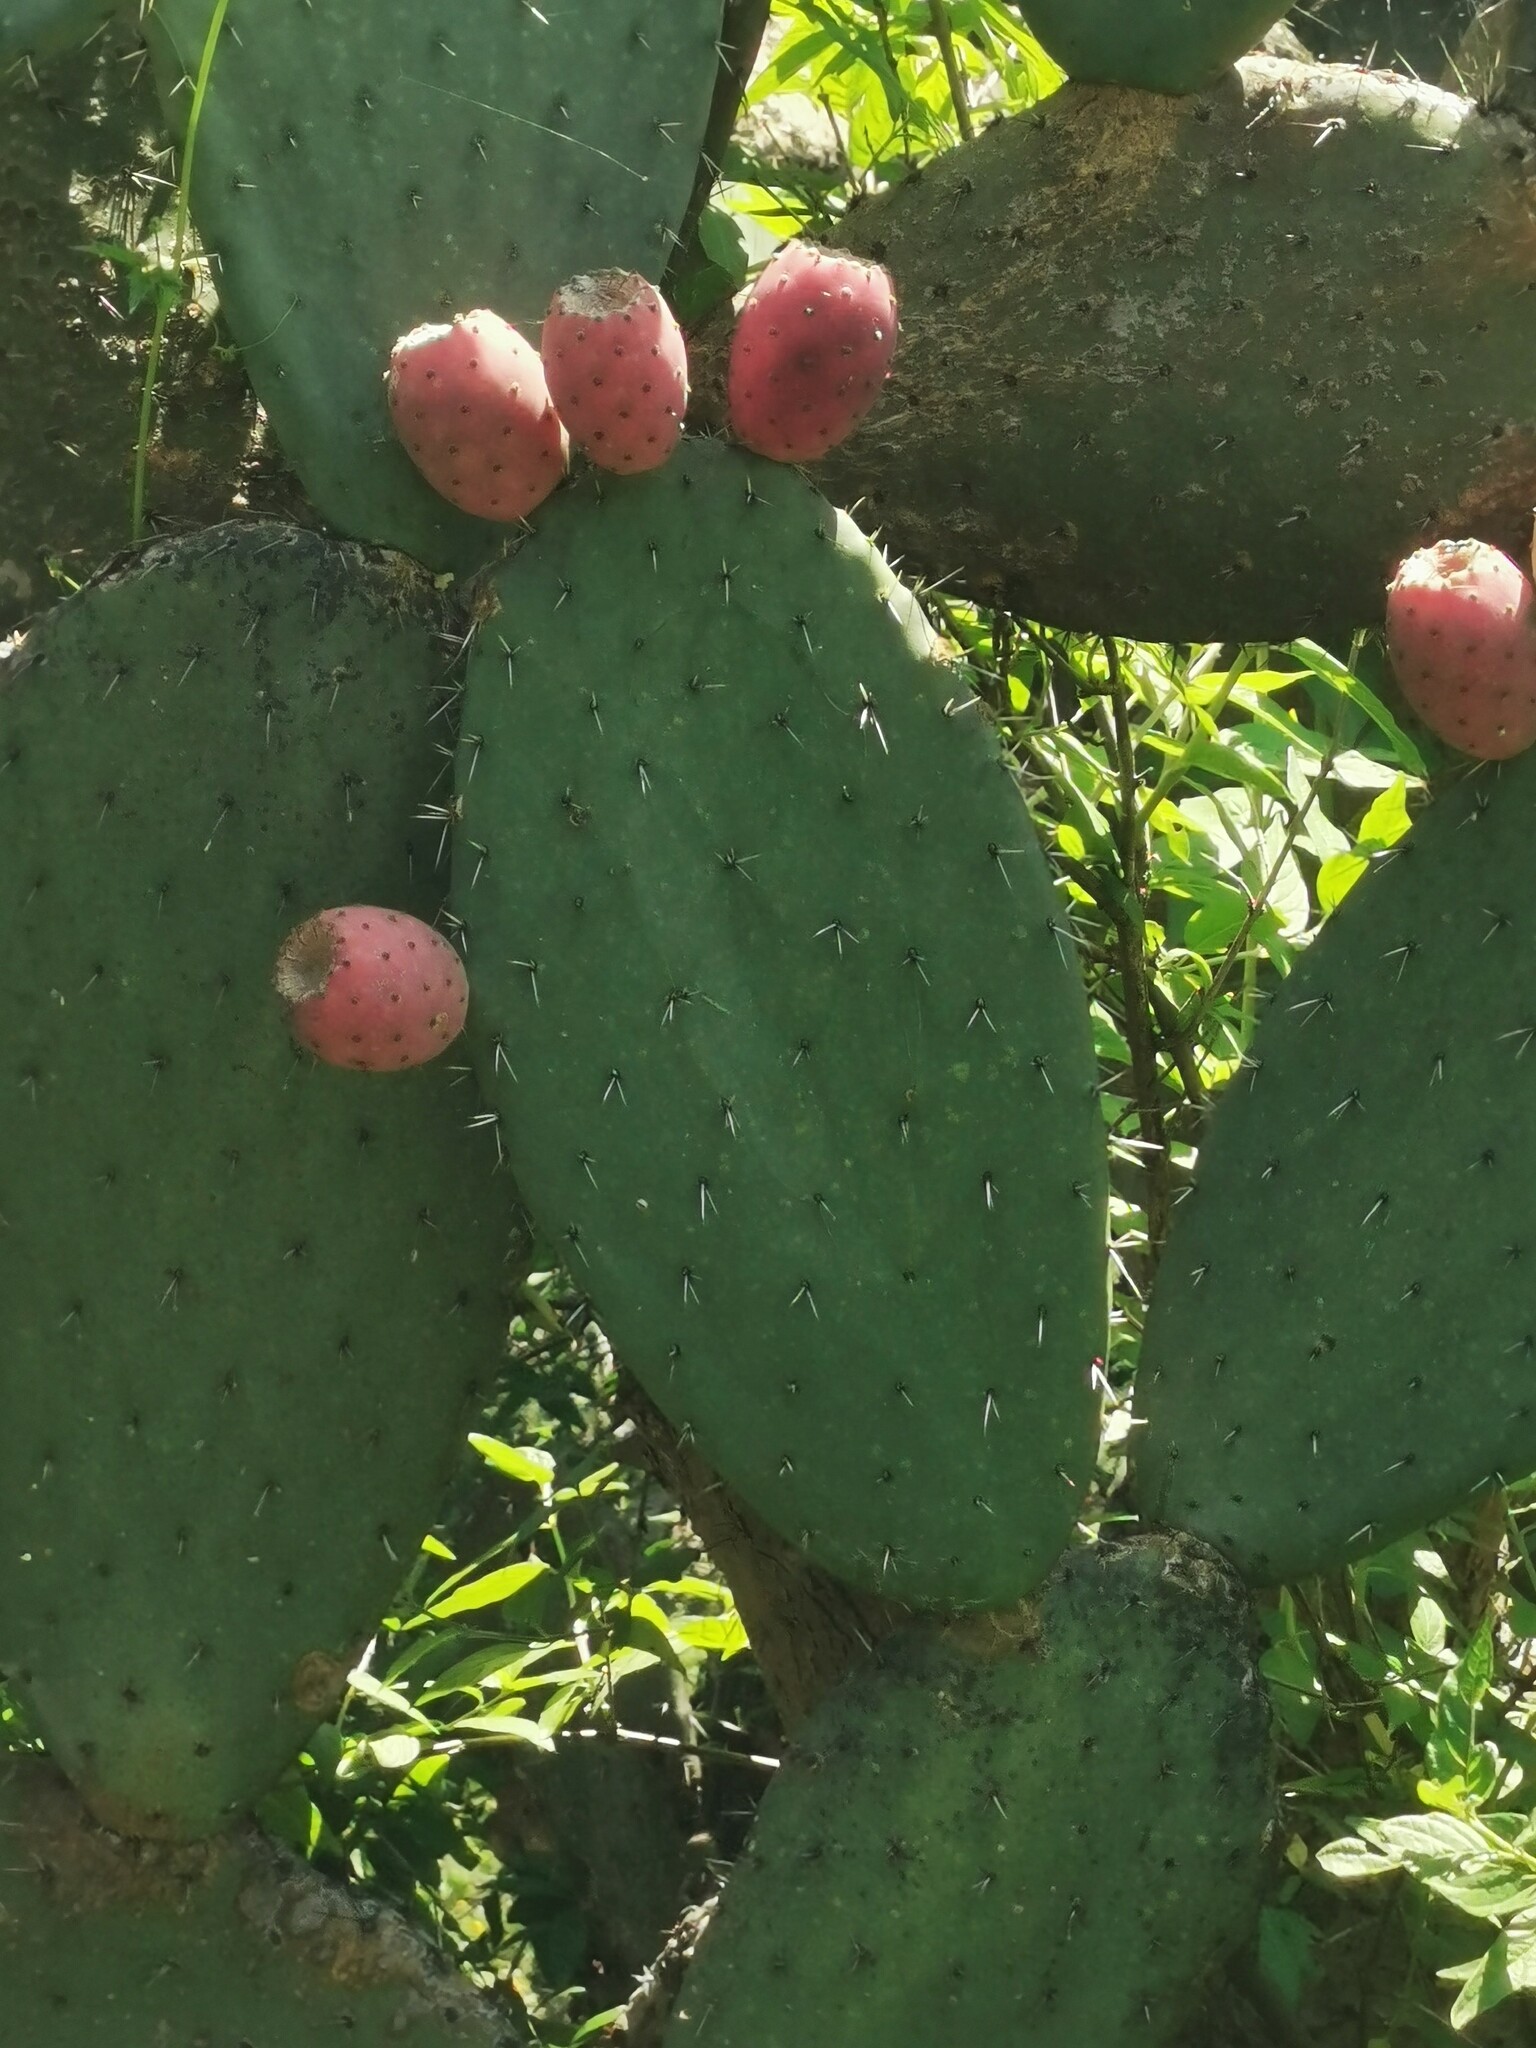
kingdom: Plantae
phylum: Tracheophyta
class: Magnoliopsida
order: Caryophyllales
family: Cactaceae
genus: Opuntia
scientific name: Opuntia hyptiacantha
